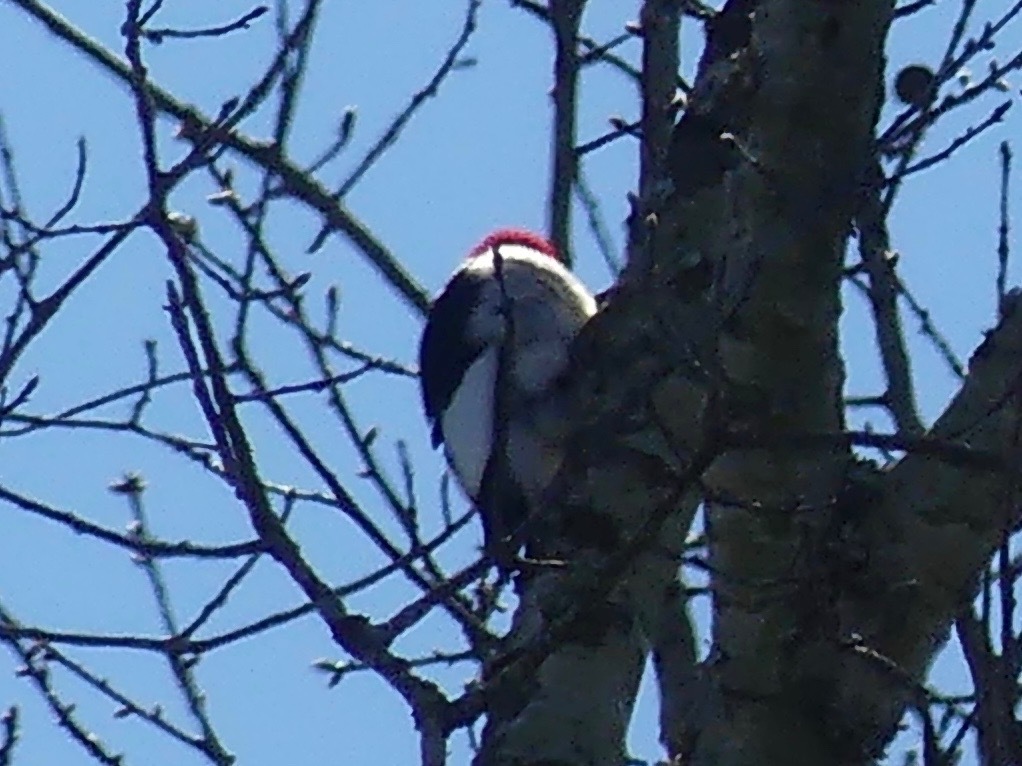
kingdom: Animalia
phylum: Chordata
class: Aves
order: Piciformes
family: Picidae
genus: Melanerpes
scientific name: Melanerpes erythrocephalus
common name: Red-headed woodpecker
